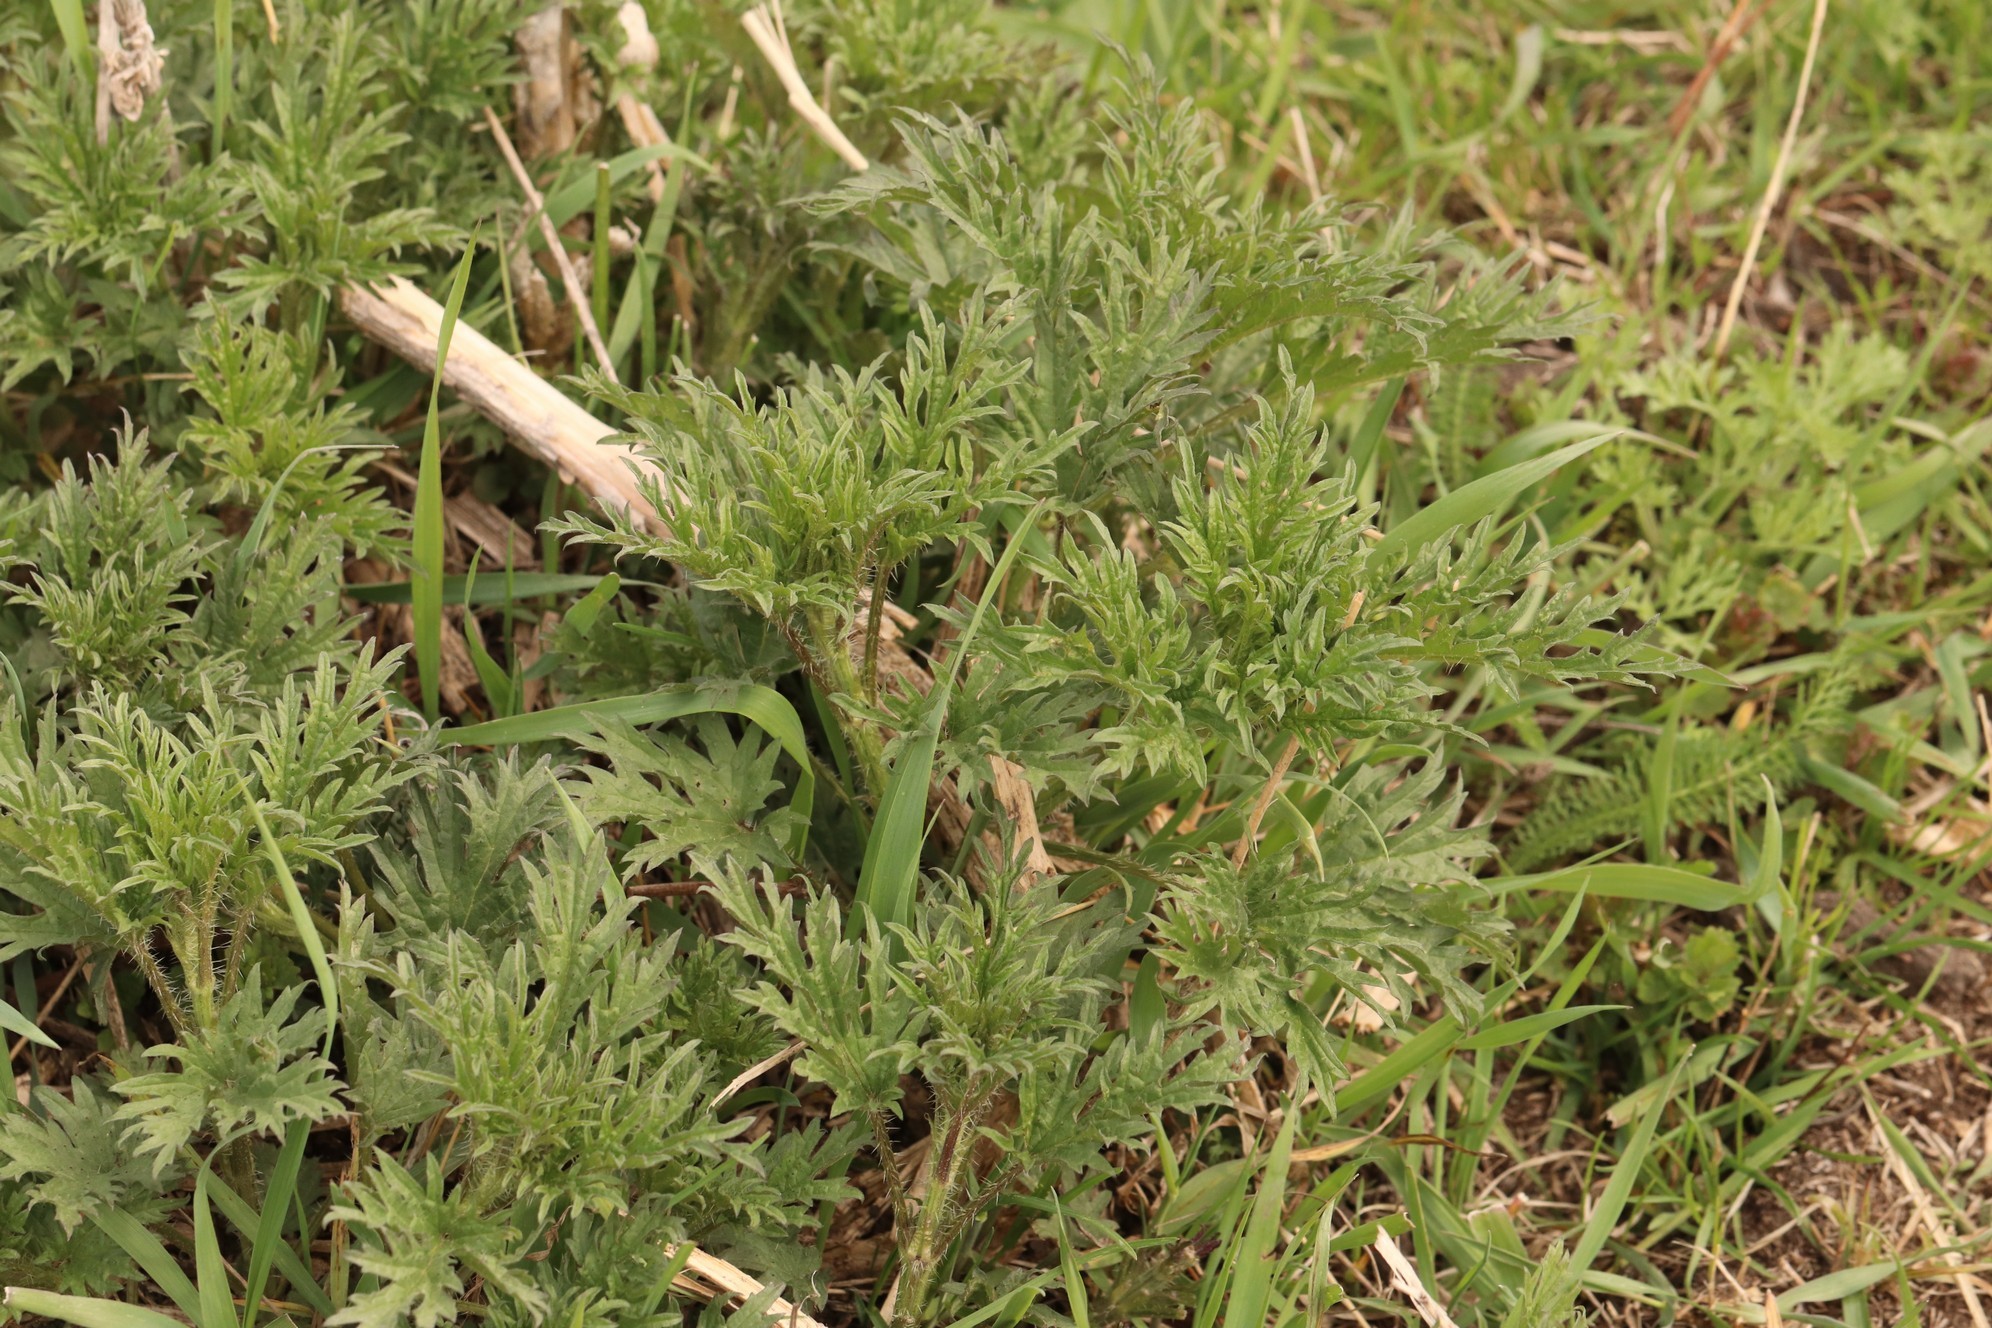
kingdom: Plantae
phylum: Tracheophyta
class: Magnoliopsida
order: Rosales
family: Urticaceae
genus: Urtica
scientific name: Urtica cannabina
